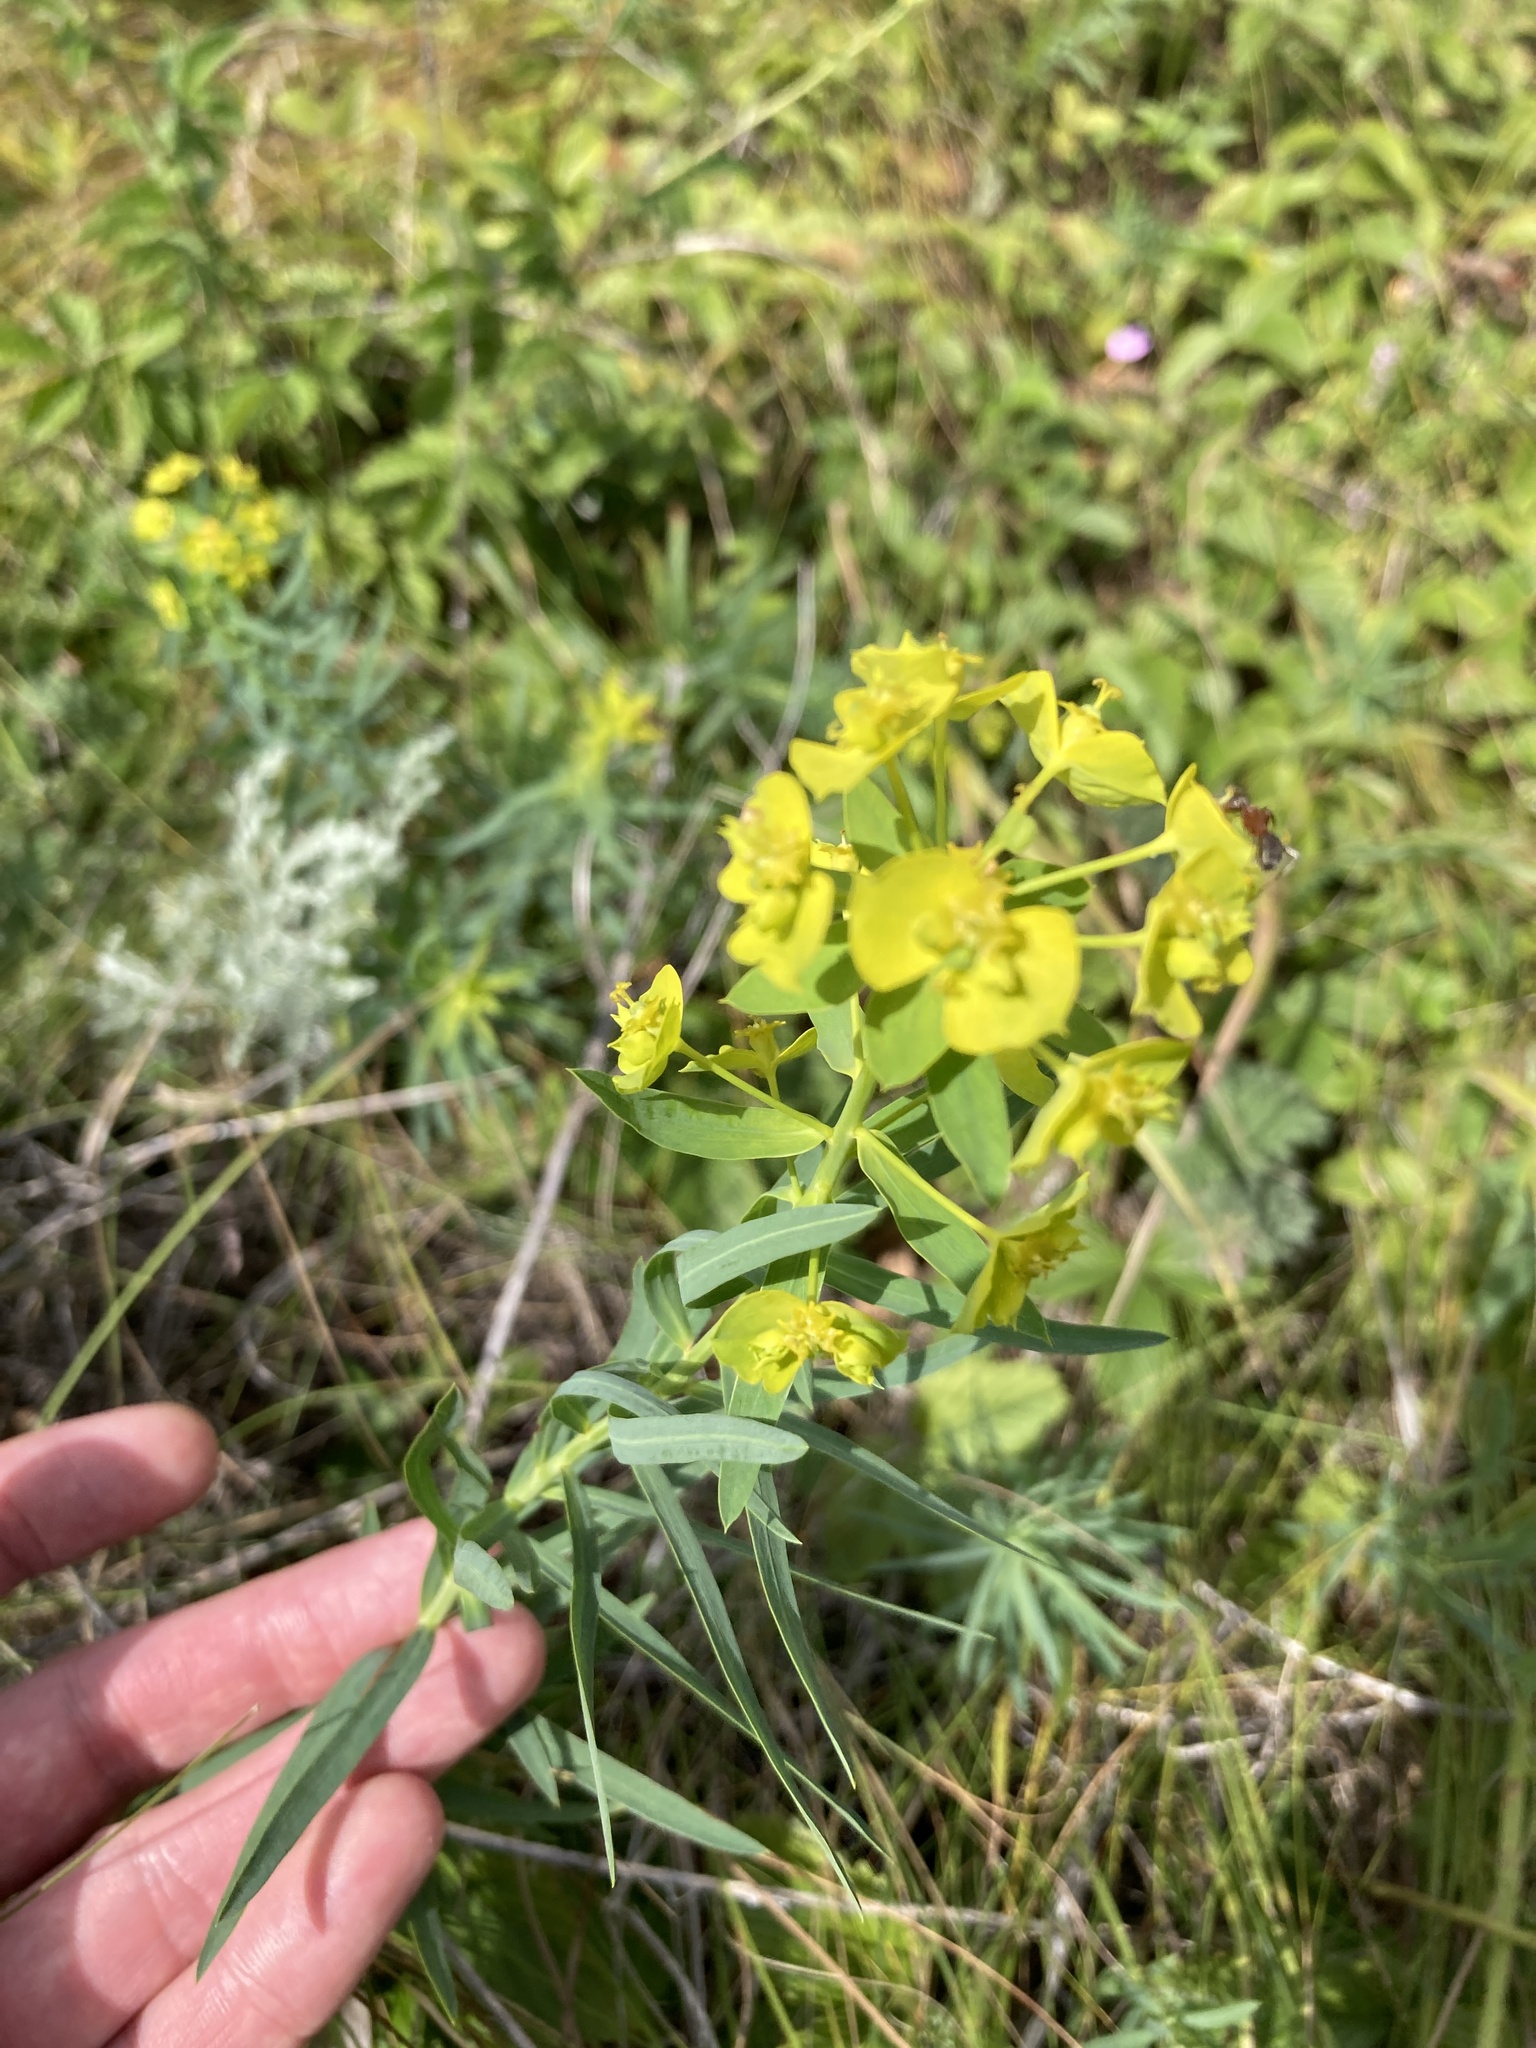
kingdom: Plantae
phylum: Tracheophyta
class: Magnoliopsida
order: Malpighiales
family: Euphorbiaceae
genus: Euphorbia
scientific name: Euphorbia virgata
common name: Leafy spurge
